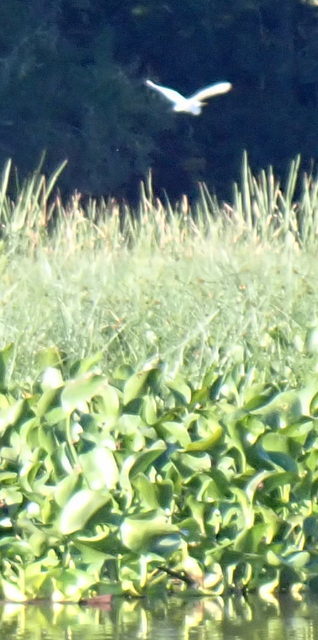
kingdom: Animalia
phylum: Chordata
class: Aves
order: Pelecaniformes
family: Ardeidae
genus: Ardea
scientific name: Ardea alba
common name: Great egret
